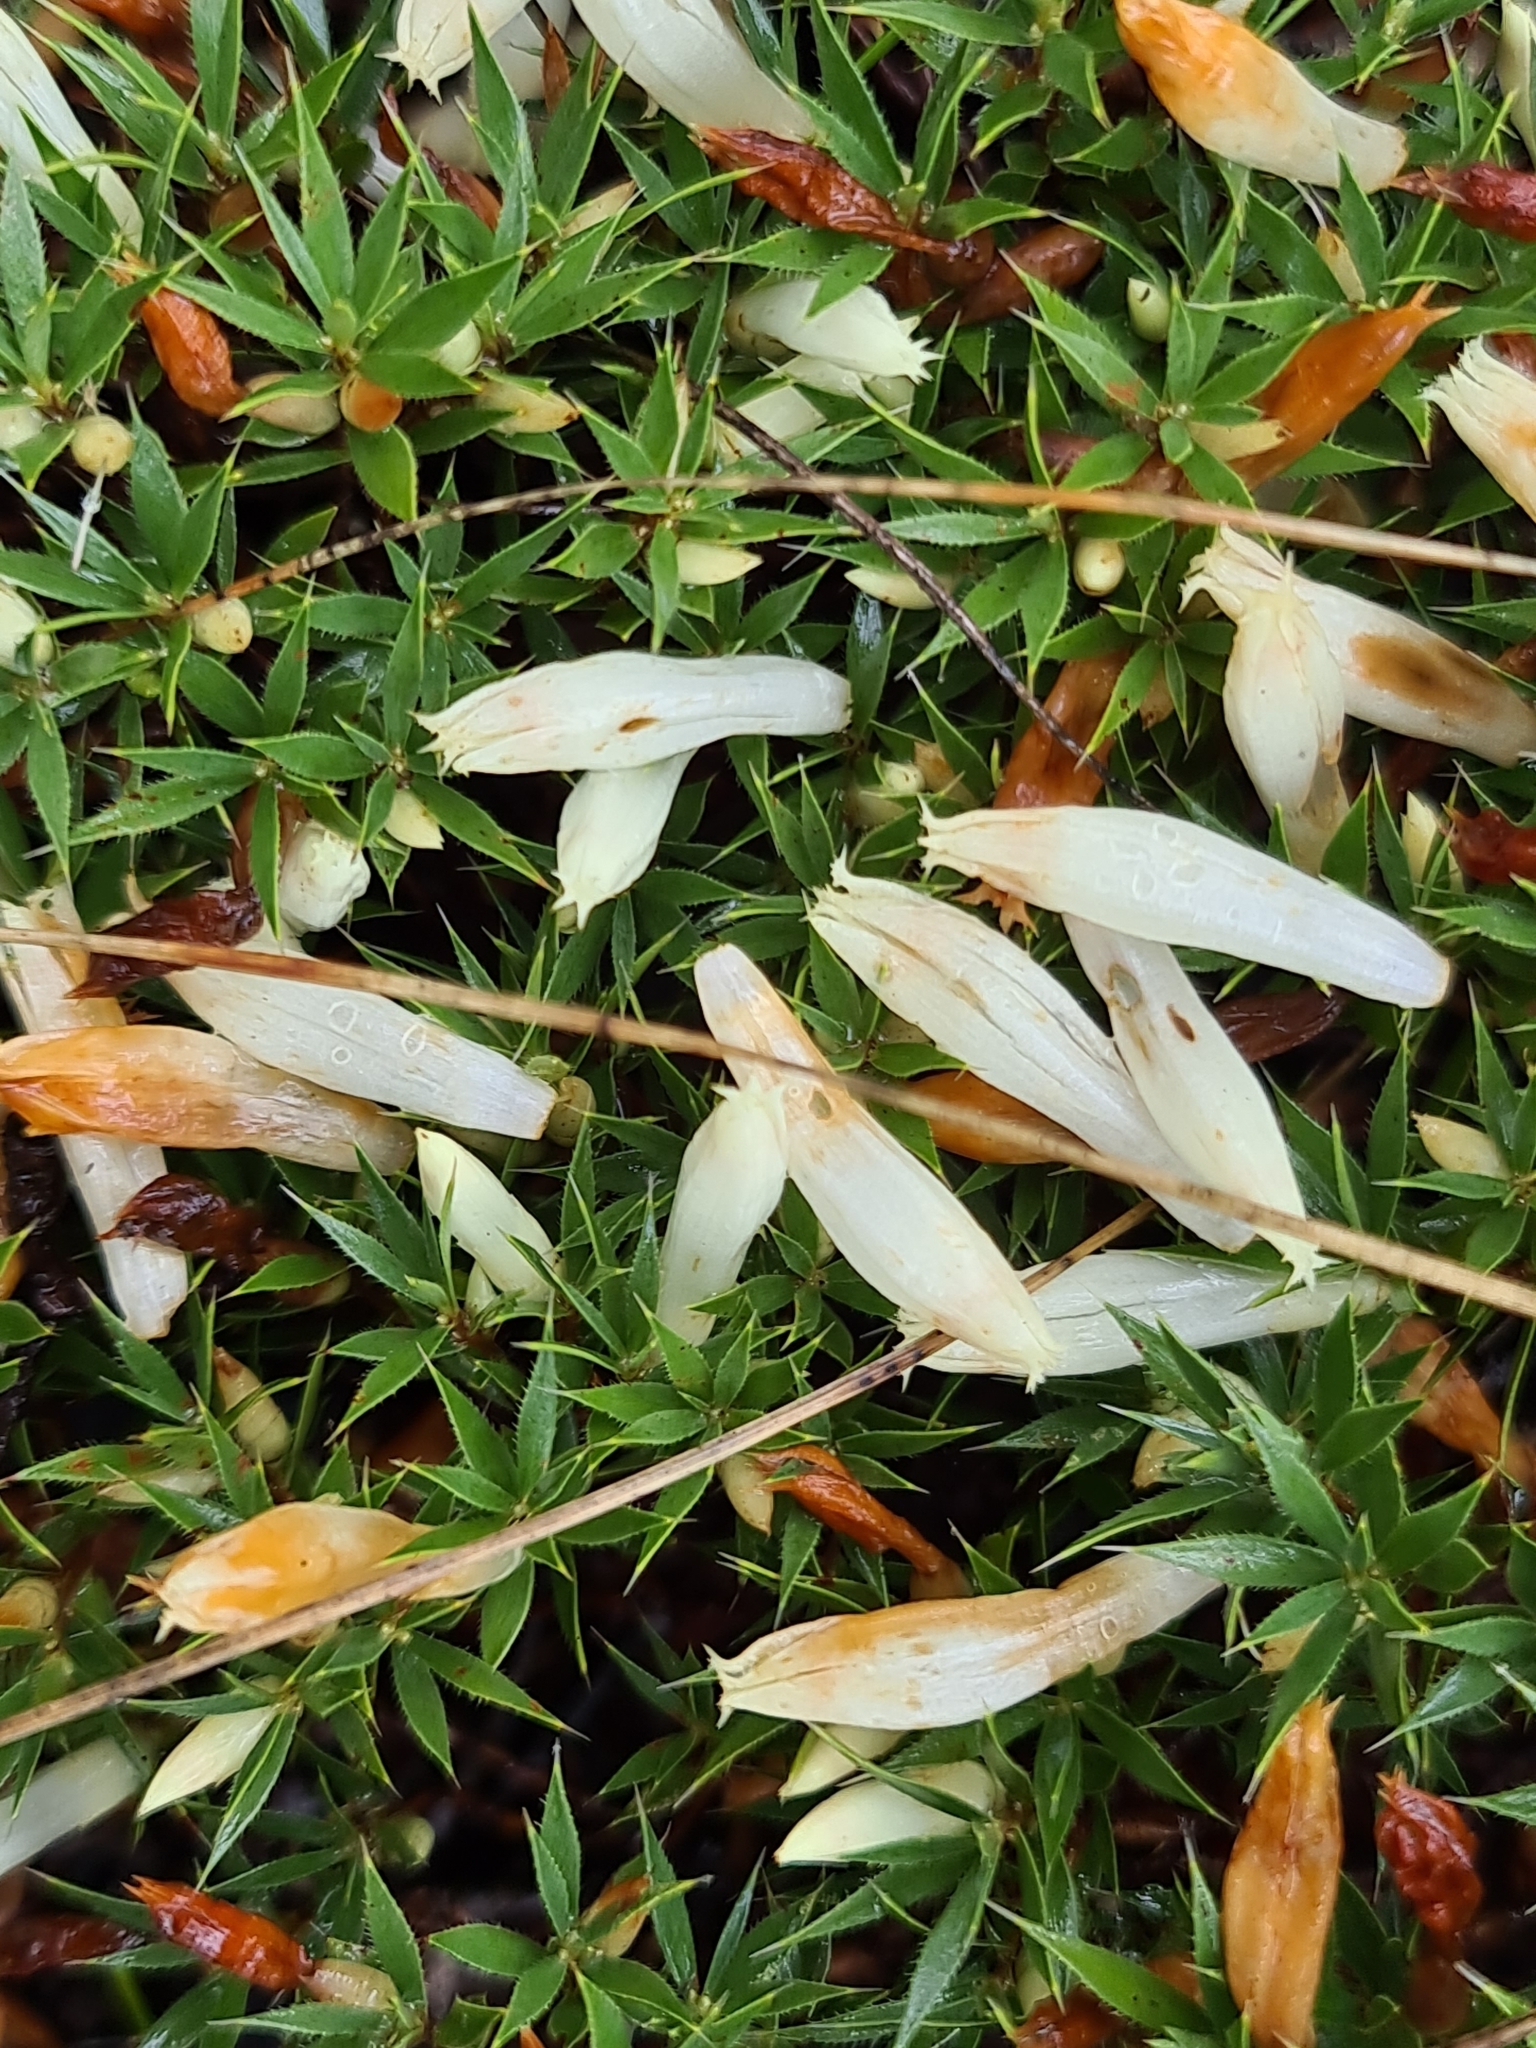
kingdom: Plantae
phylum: Tracheophyta
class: Magnoliopsida
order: Ericales
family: Ericaceae
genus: Styphelia
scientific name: Styphelia pallida
